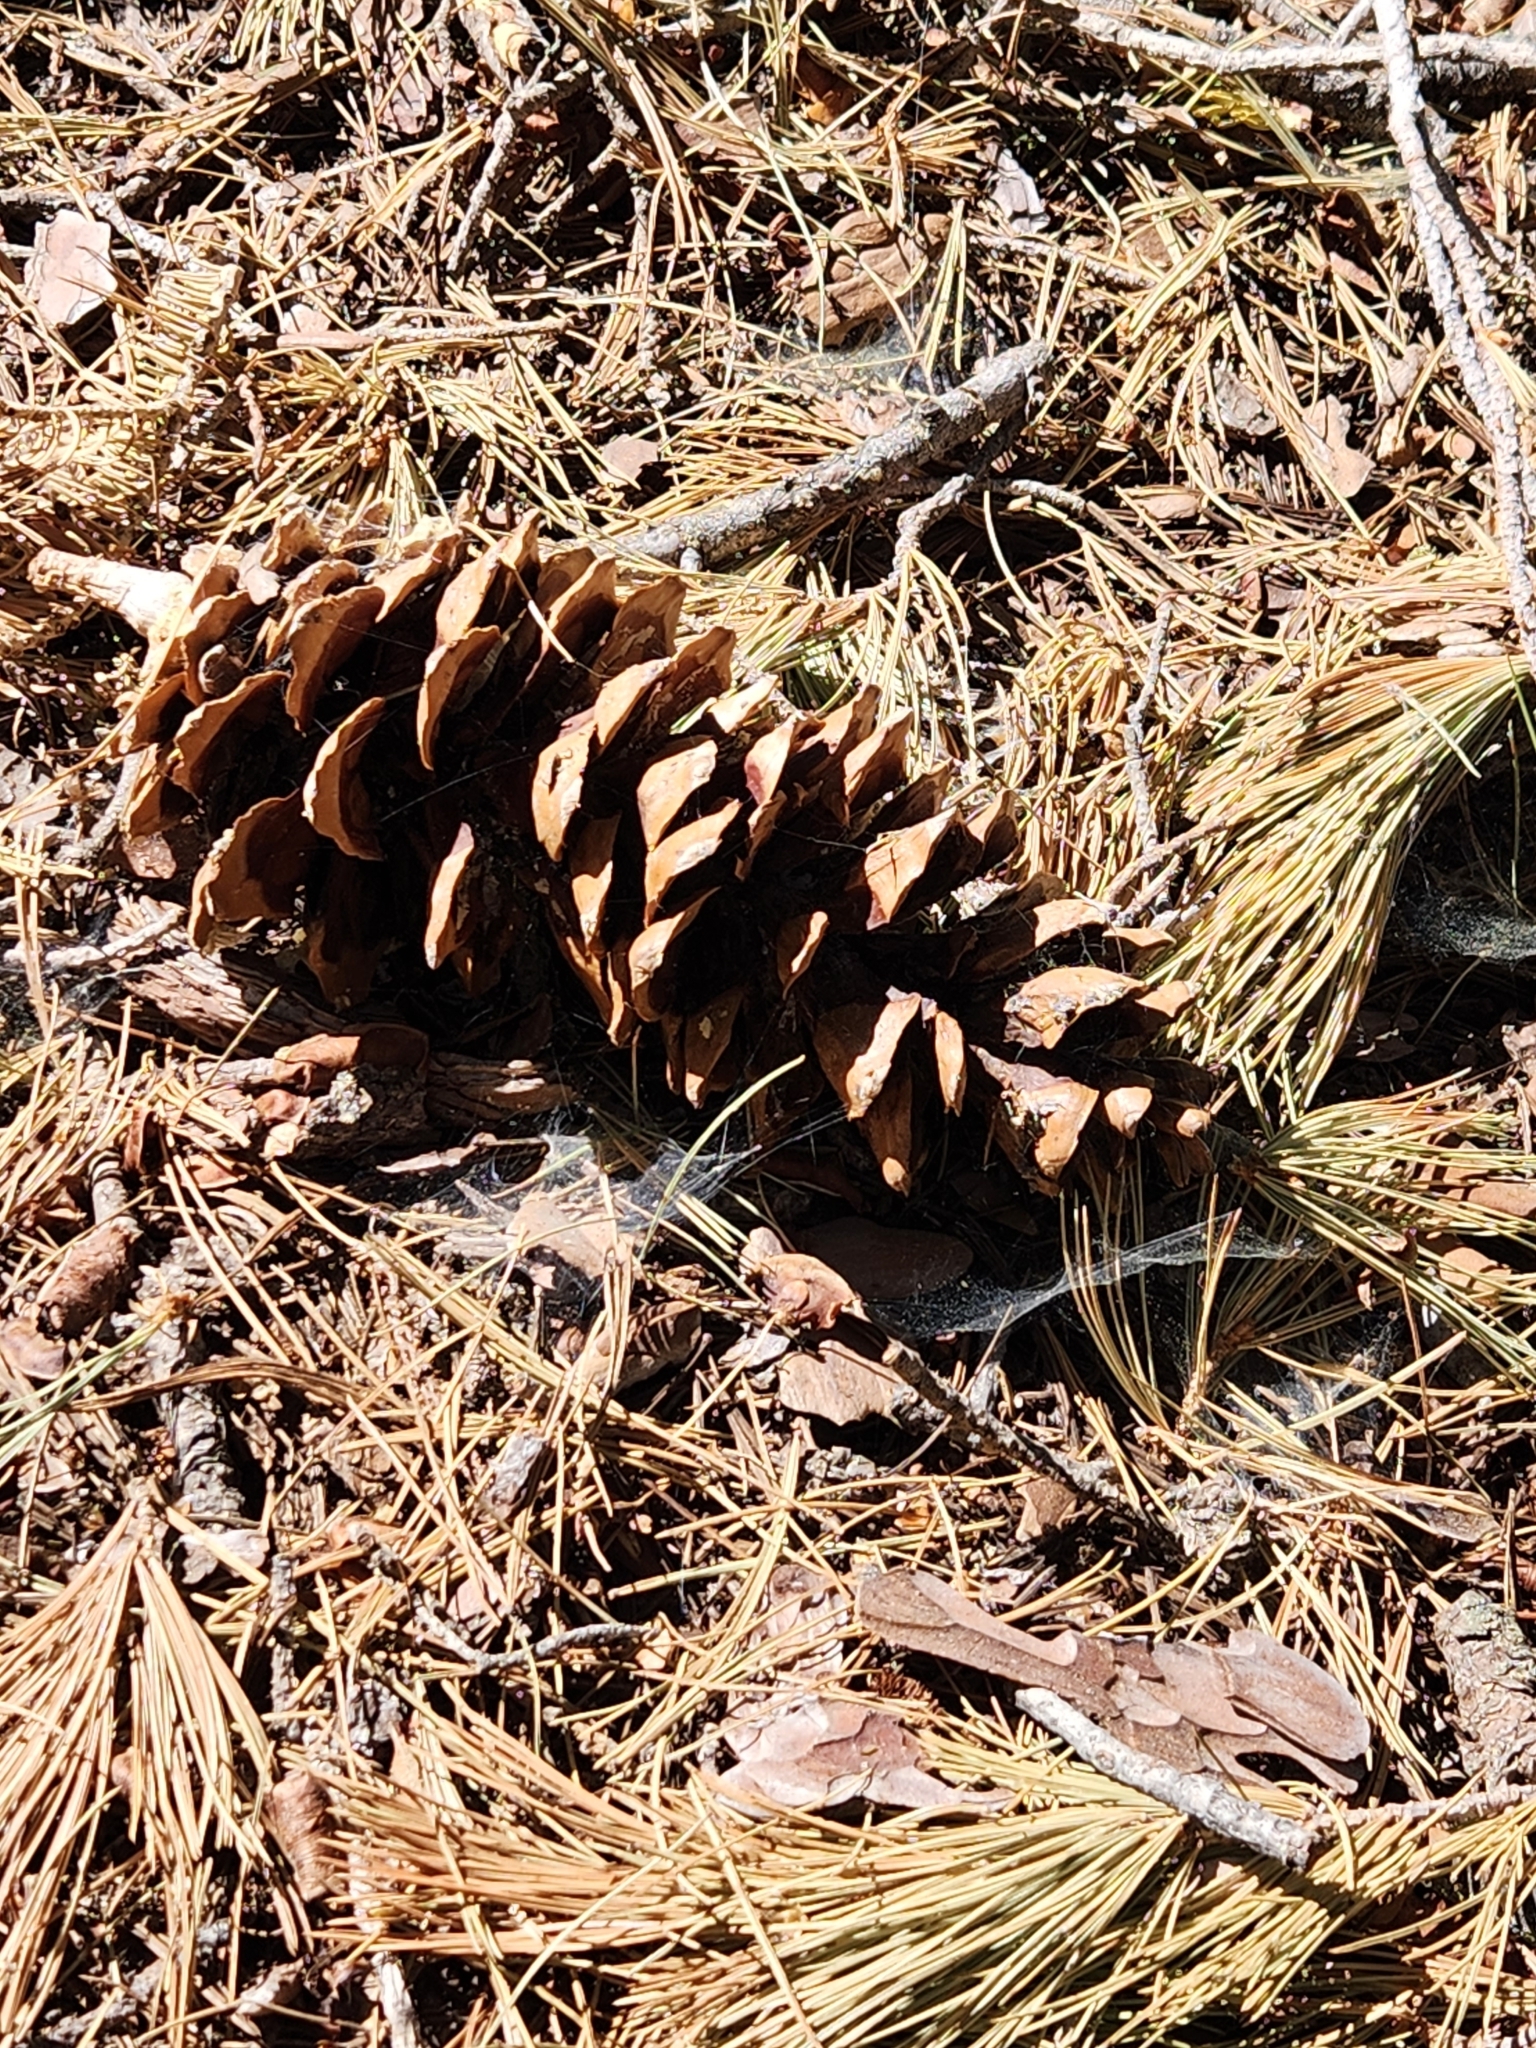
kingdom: Plantae
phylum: Tracheophyta
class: Pinopsida
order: Pinales
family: Pinaceae
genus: Pinus
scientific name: Pinus lambertiana
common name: Sugar pine
